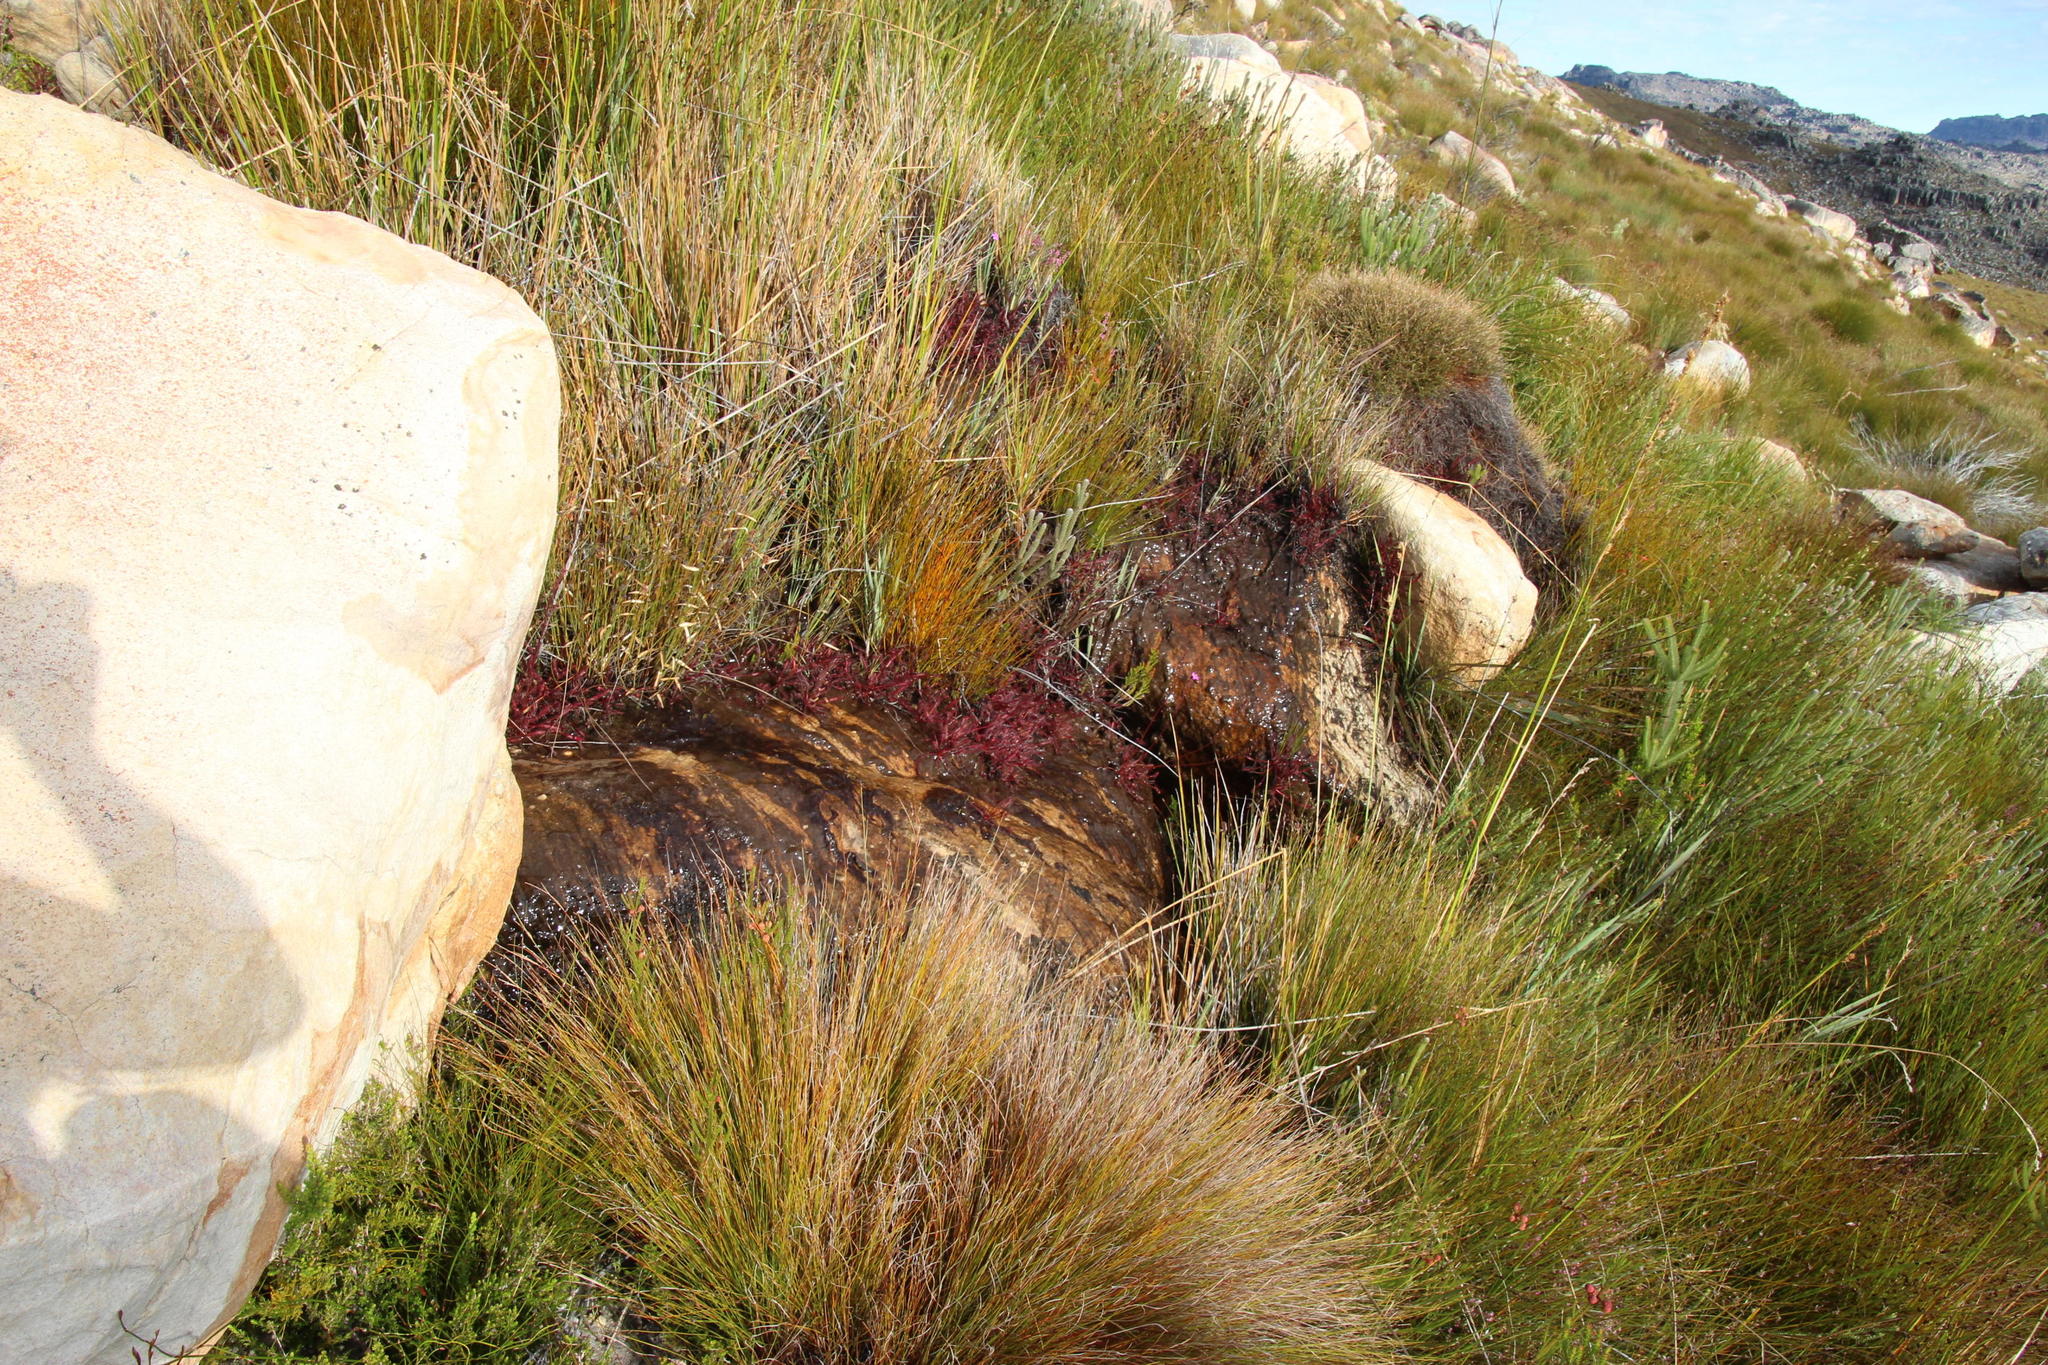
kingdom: Plantae
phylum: Tracheophyta
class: Magnoliopsida
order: Caryophyllales
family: Droseraceae
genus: Drosera
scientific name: Drosera capensis
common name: Cape sundew
